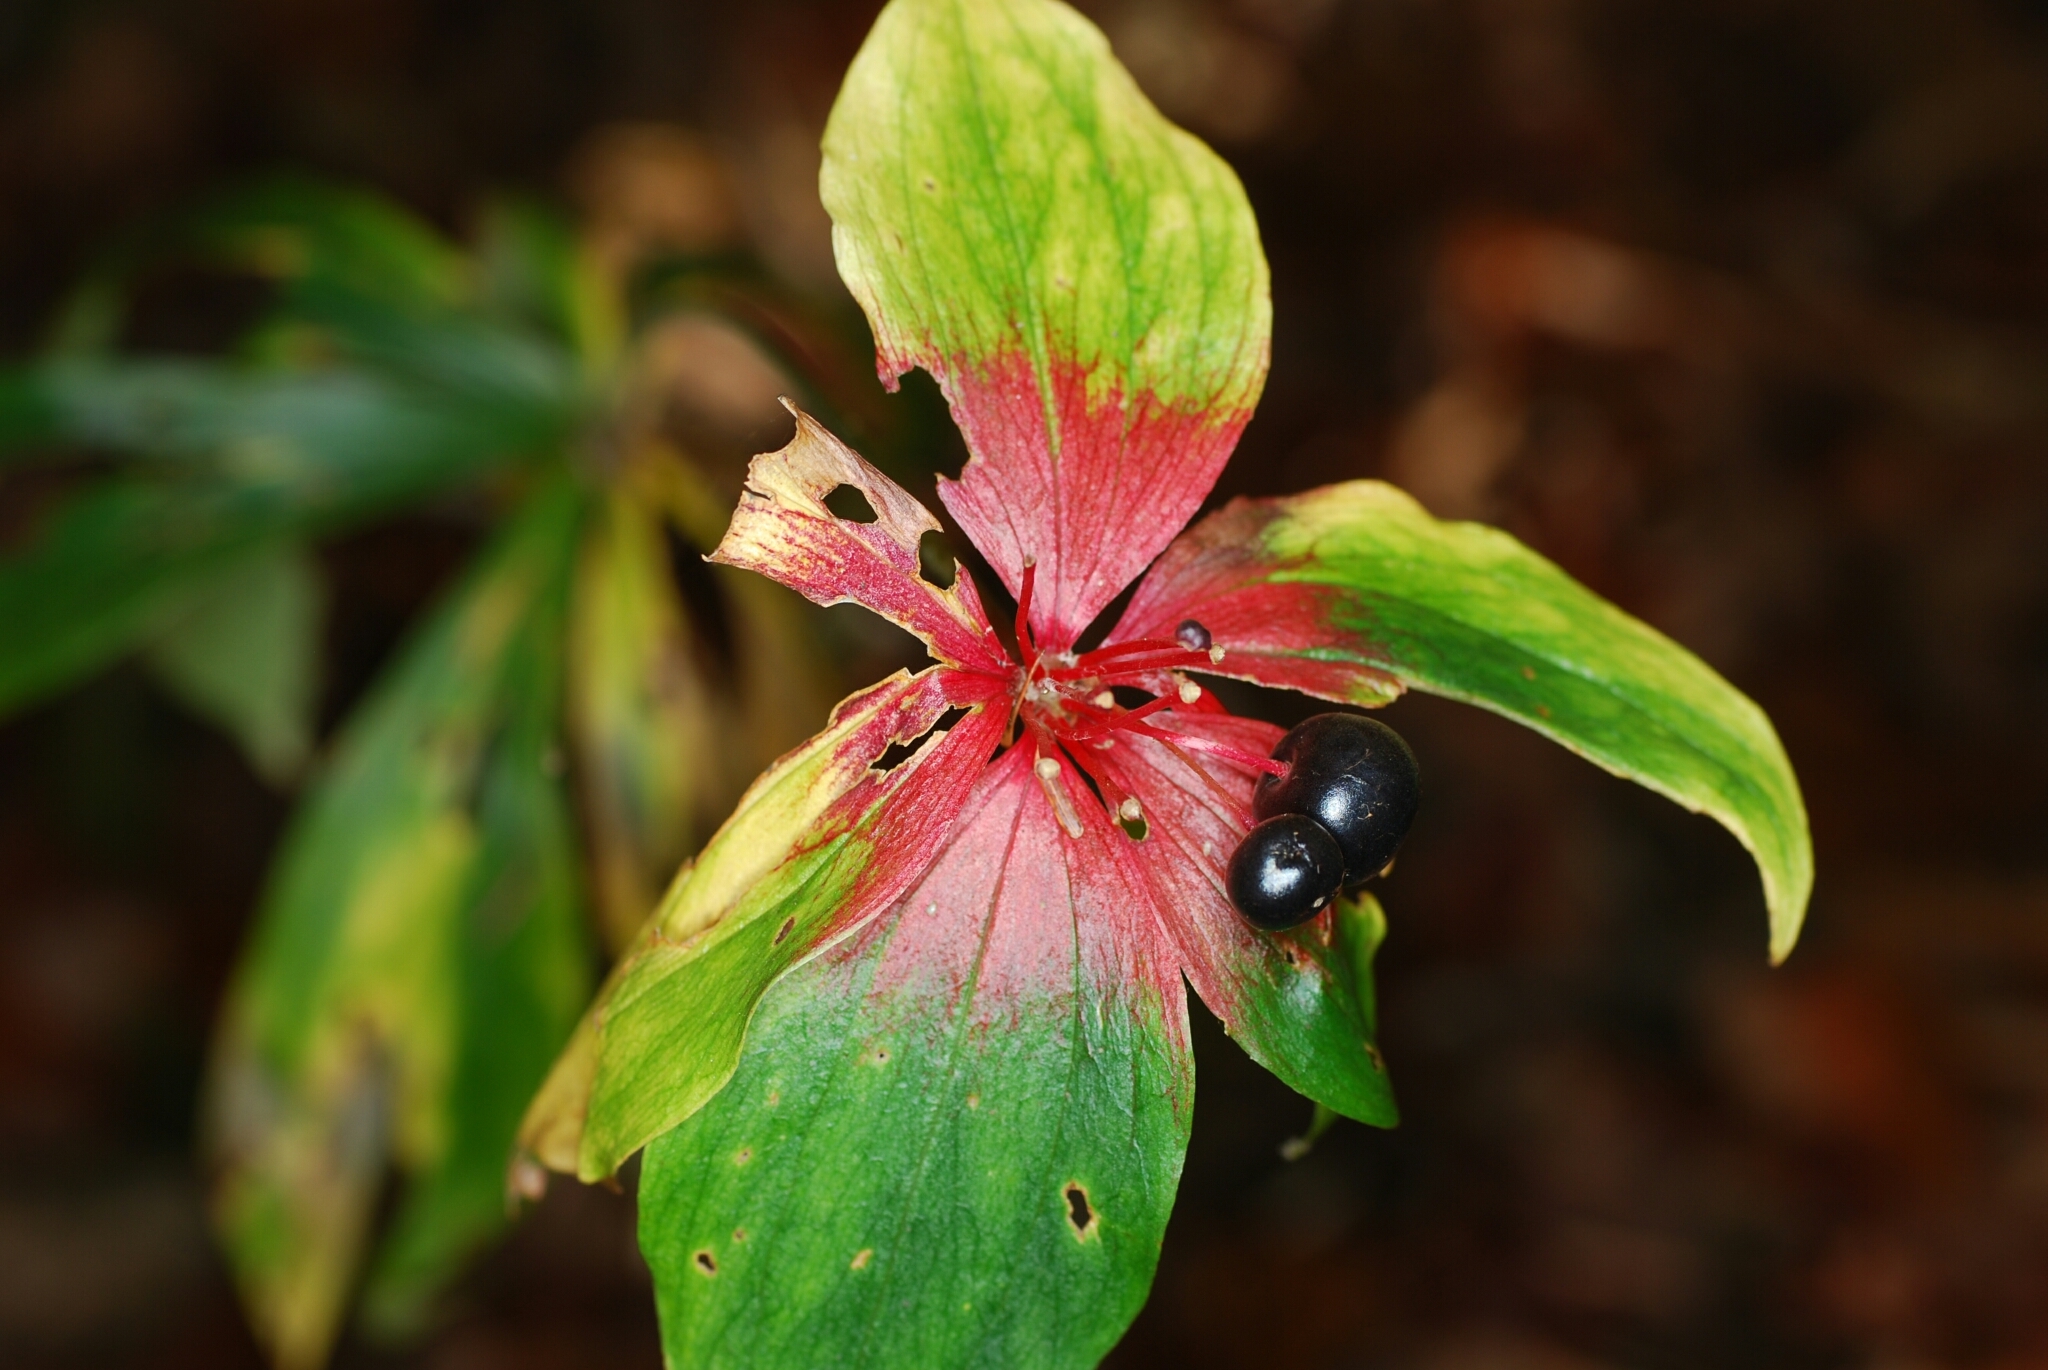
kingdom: Plantae
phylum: Tracheophyta
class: Liliopsida
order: Liliales
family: Liliaceae
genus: Medeola
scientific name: Medeola virginiana
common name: Indian cucumber-root
